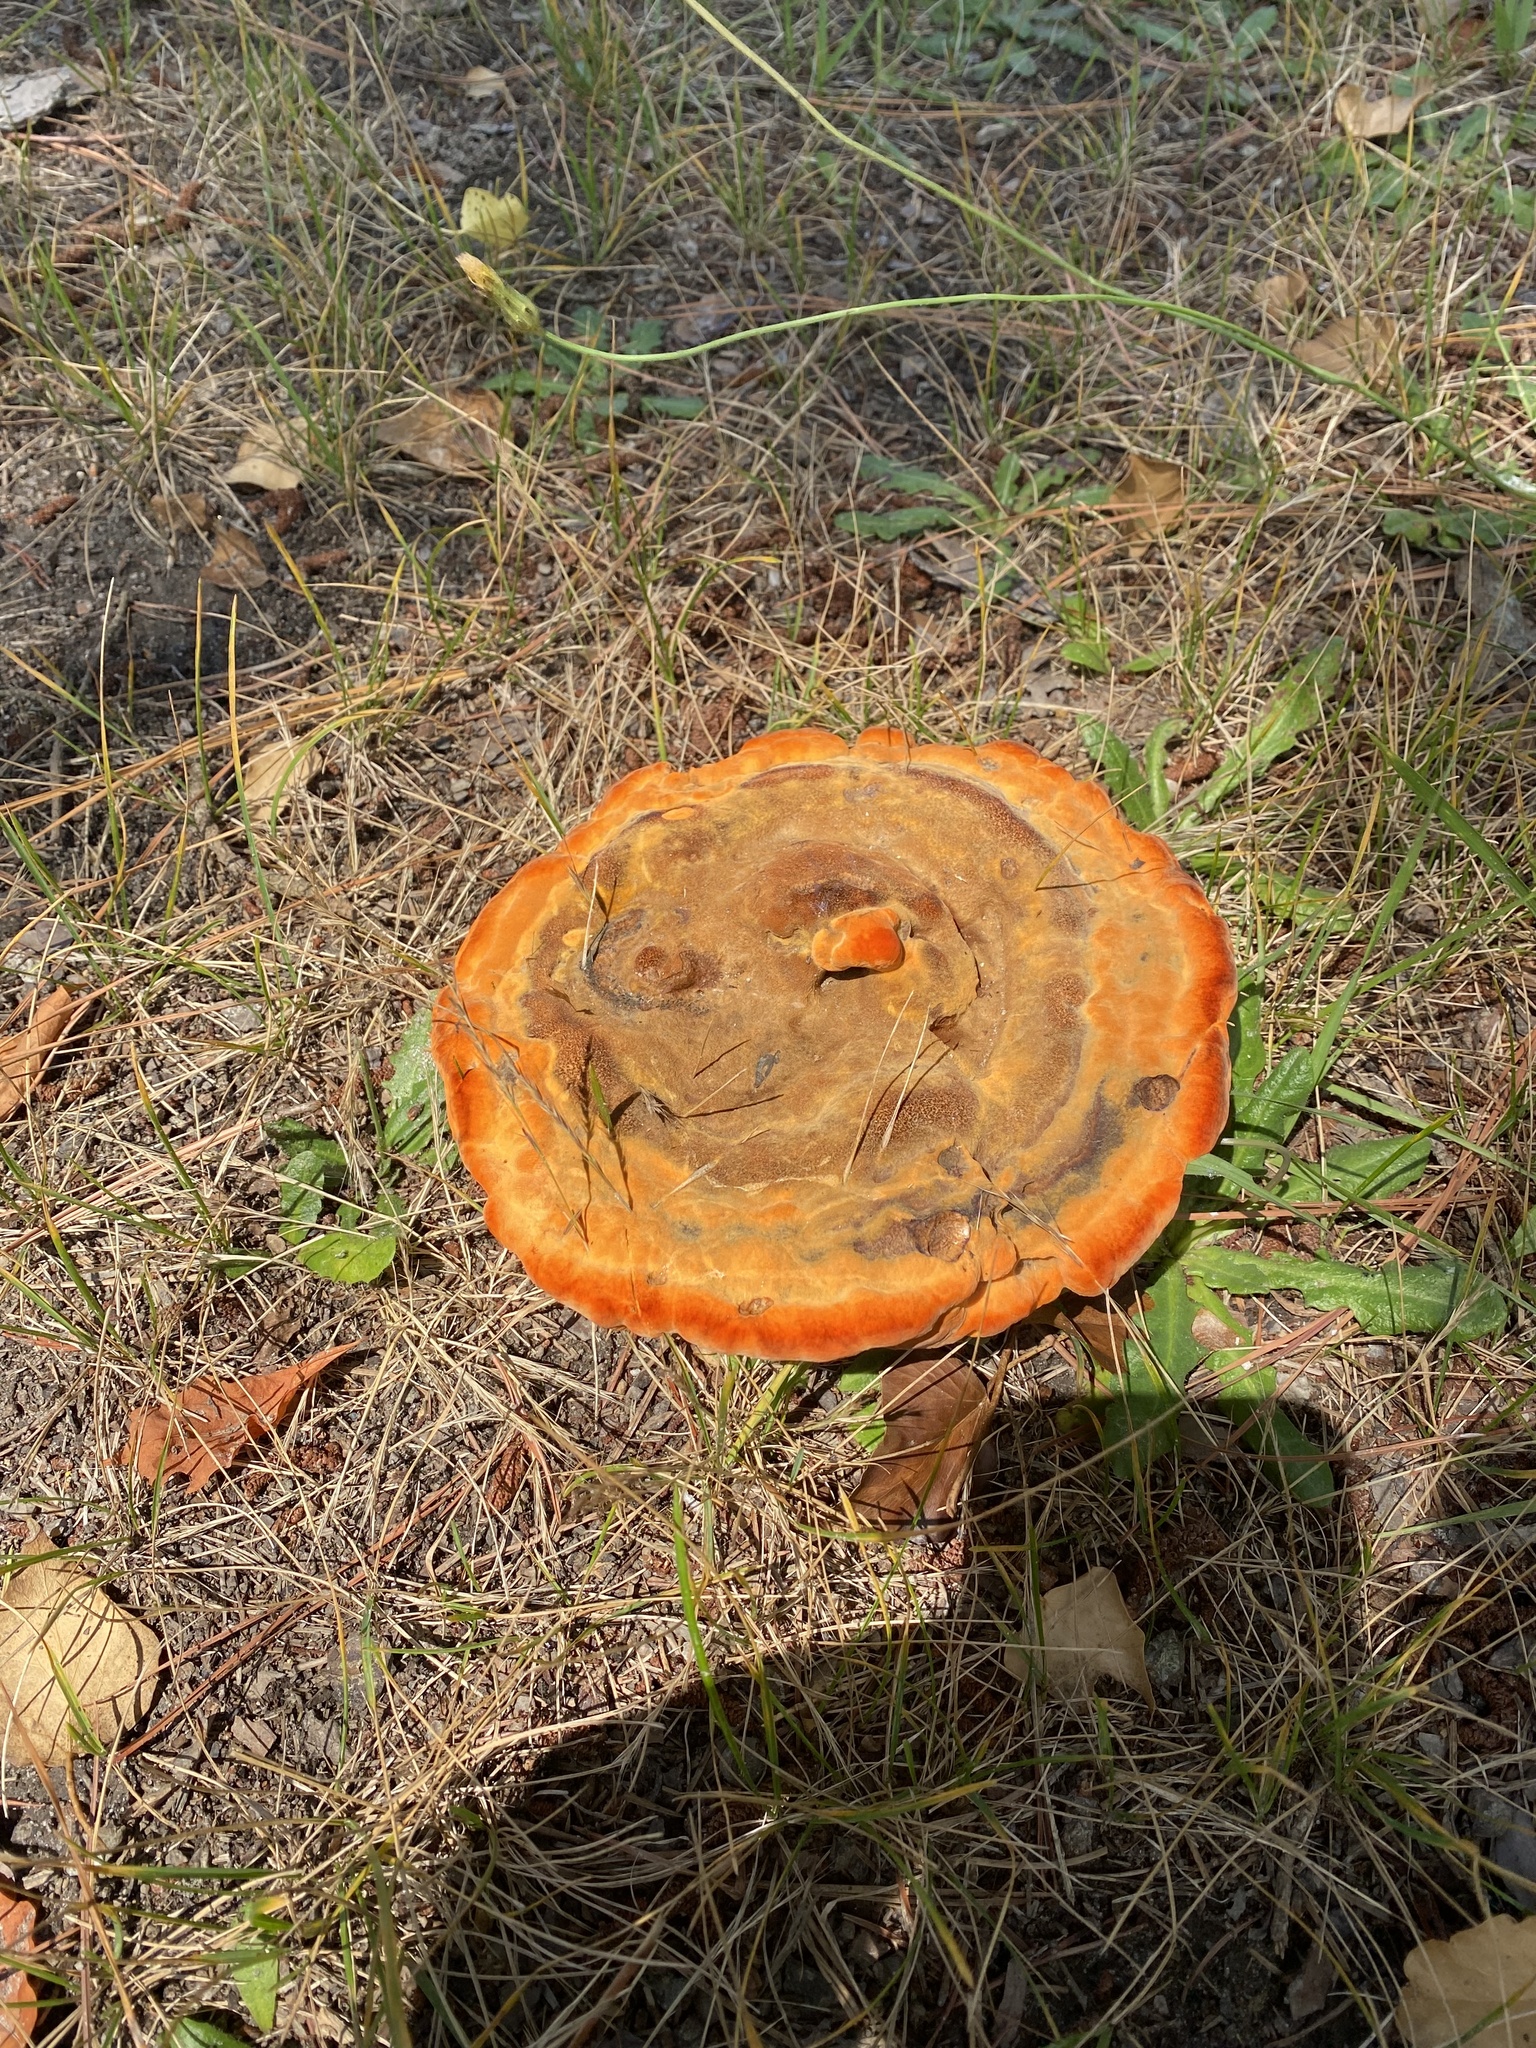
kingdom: Fungi
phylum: Basidiomycota
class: Agaricomycetes
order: Polyporales
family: Laetiporaceae
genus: Phaeolus
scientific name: Phaeolus schweinitzii
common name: Dyer's mazegill
